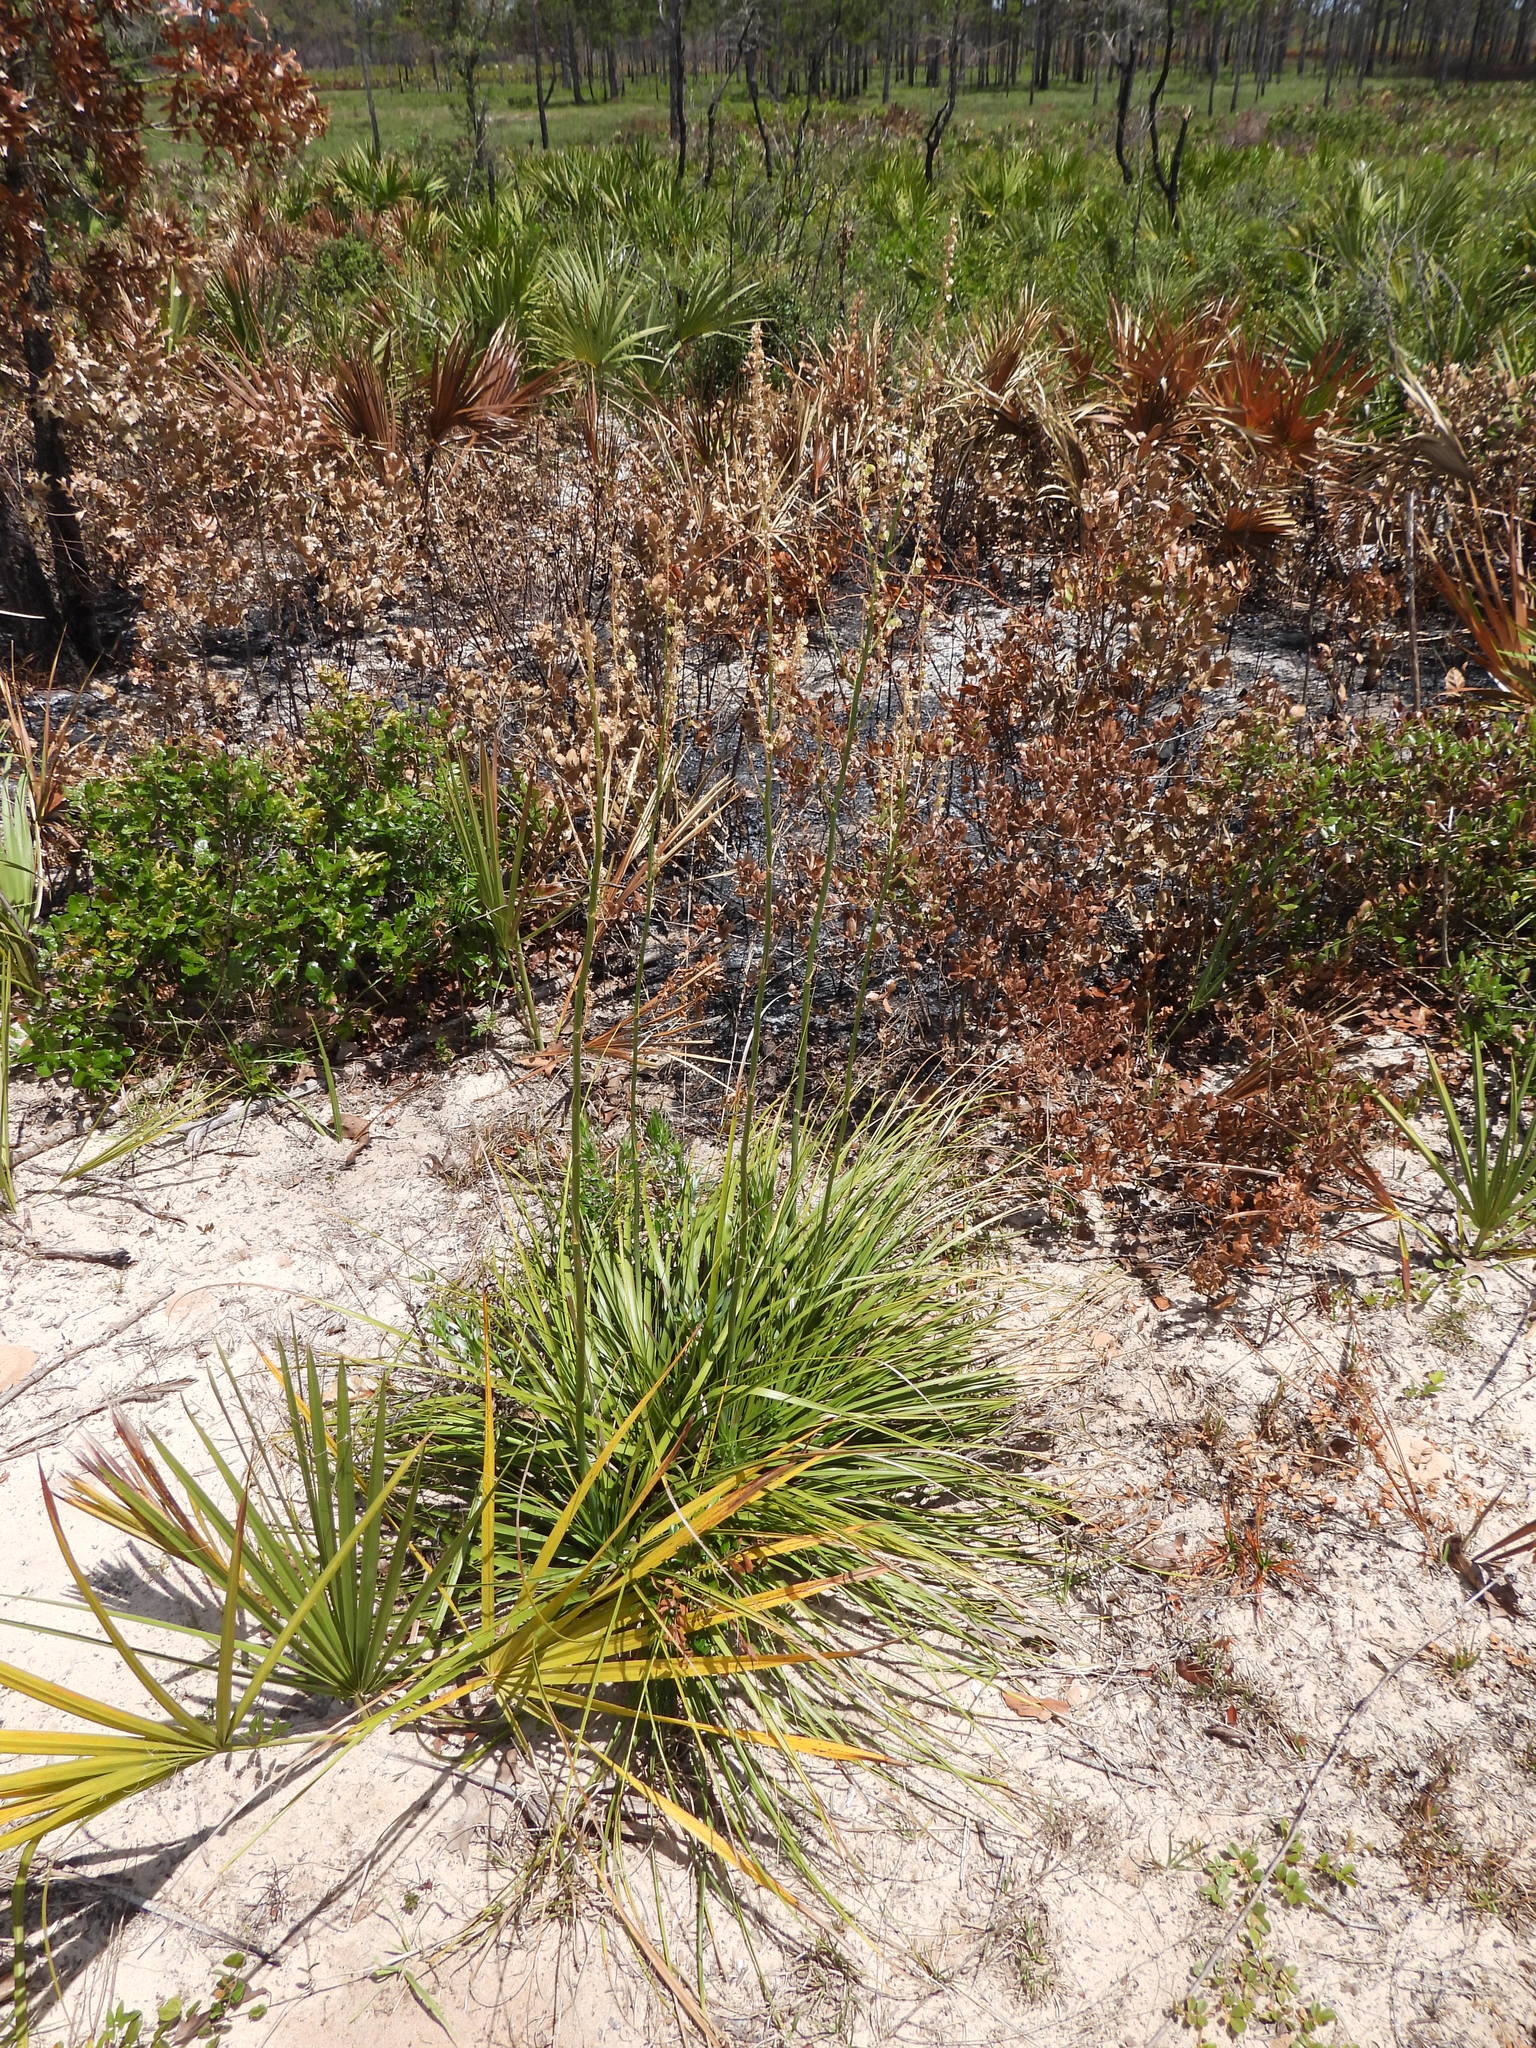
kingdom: Plantae
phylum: Tracheophyta
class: Liliopsida
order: Asparagales
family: Asparagaceae
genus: Nolina
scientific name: Nolina brittoniana
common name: Britton's bear-grass
